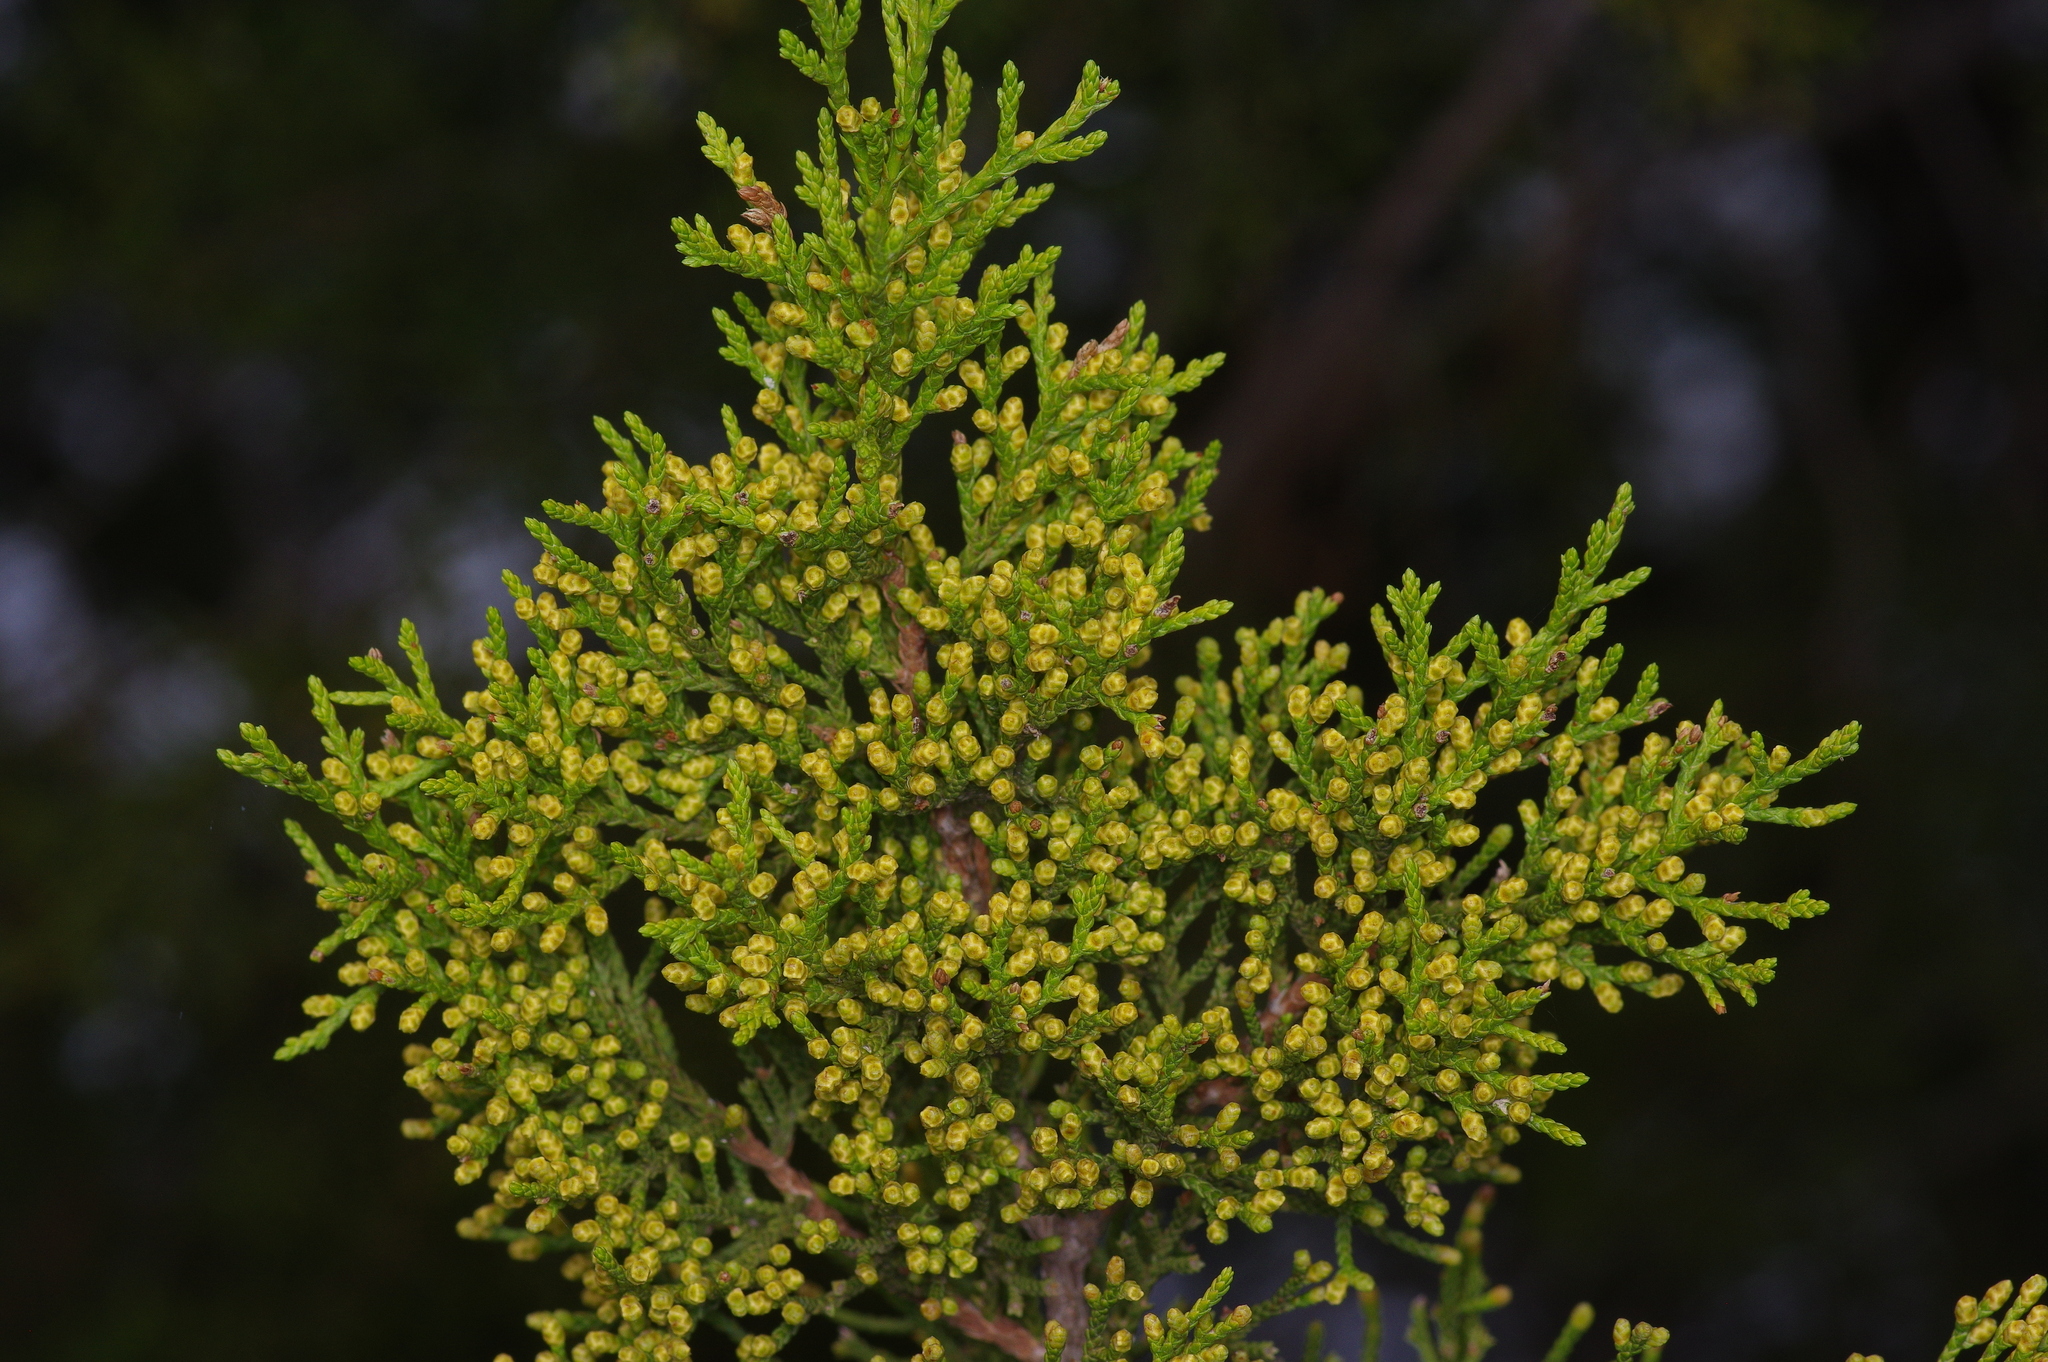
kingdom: Plantae
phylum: Tracheophyta
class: Pinopsida
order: Pinales
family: Cupressaceae
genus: Juniperus
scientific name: Juniperus ashei
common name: Mexican juniper
